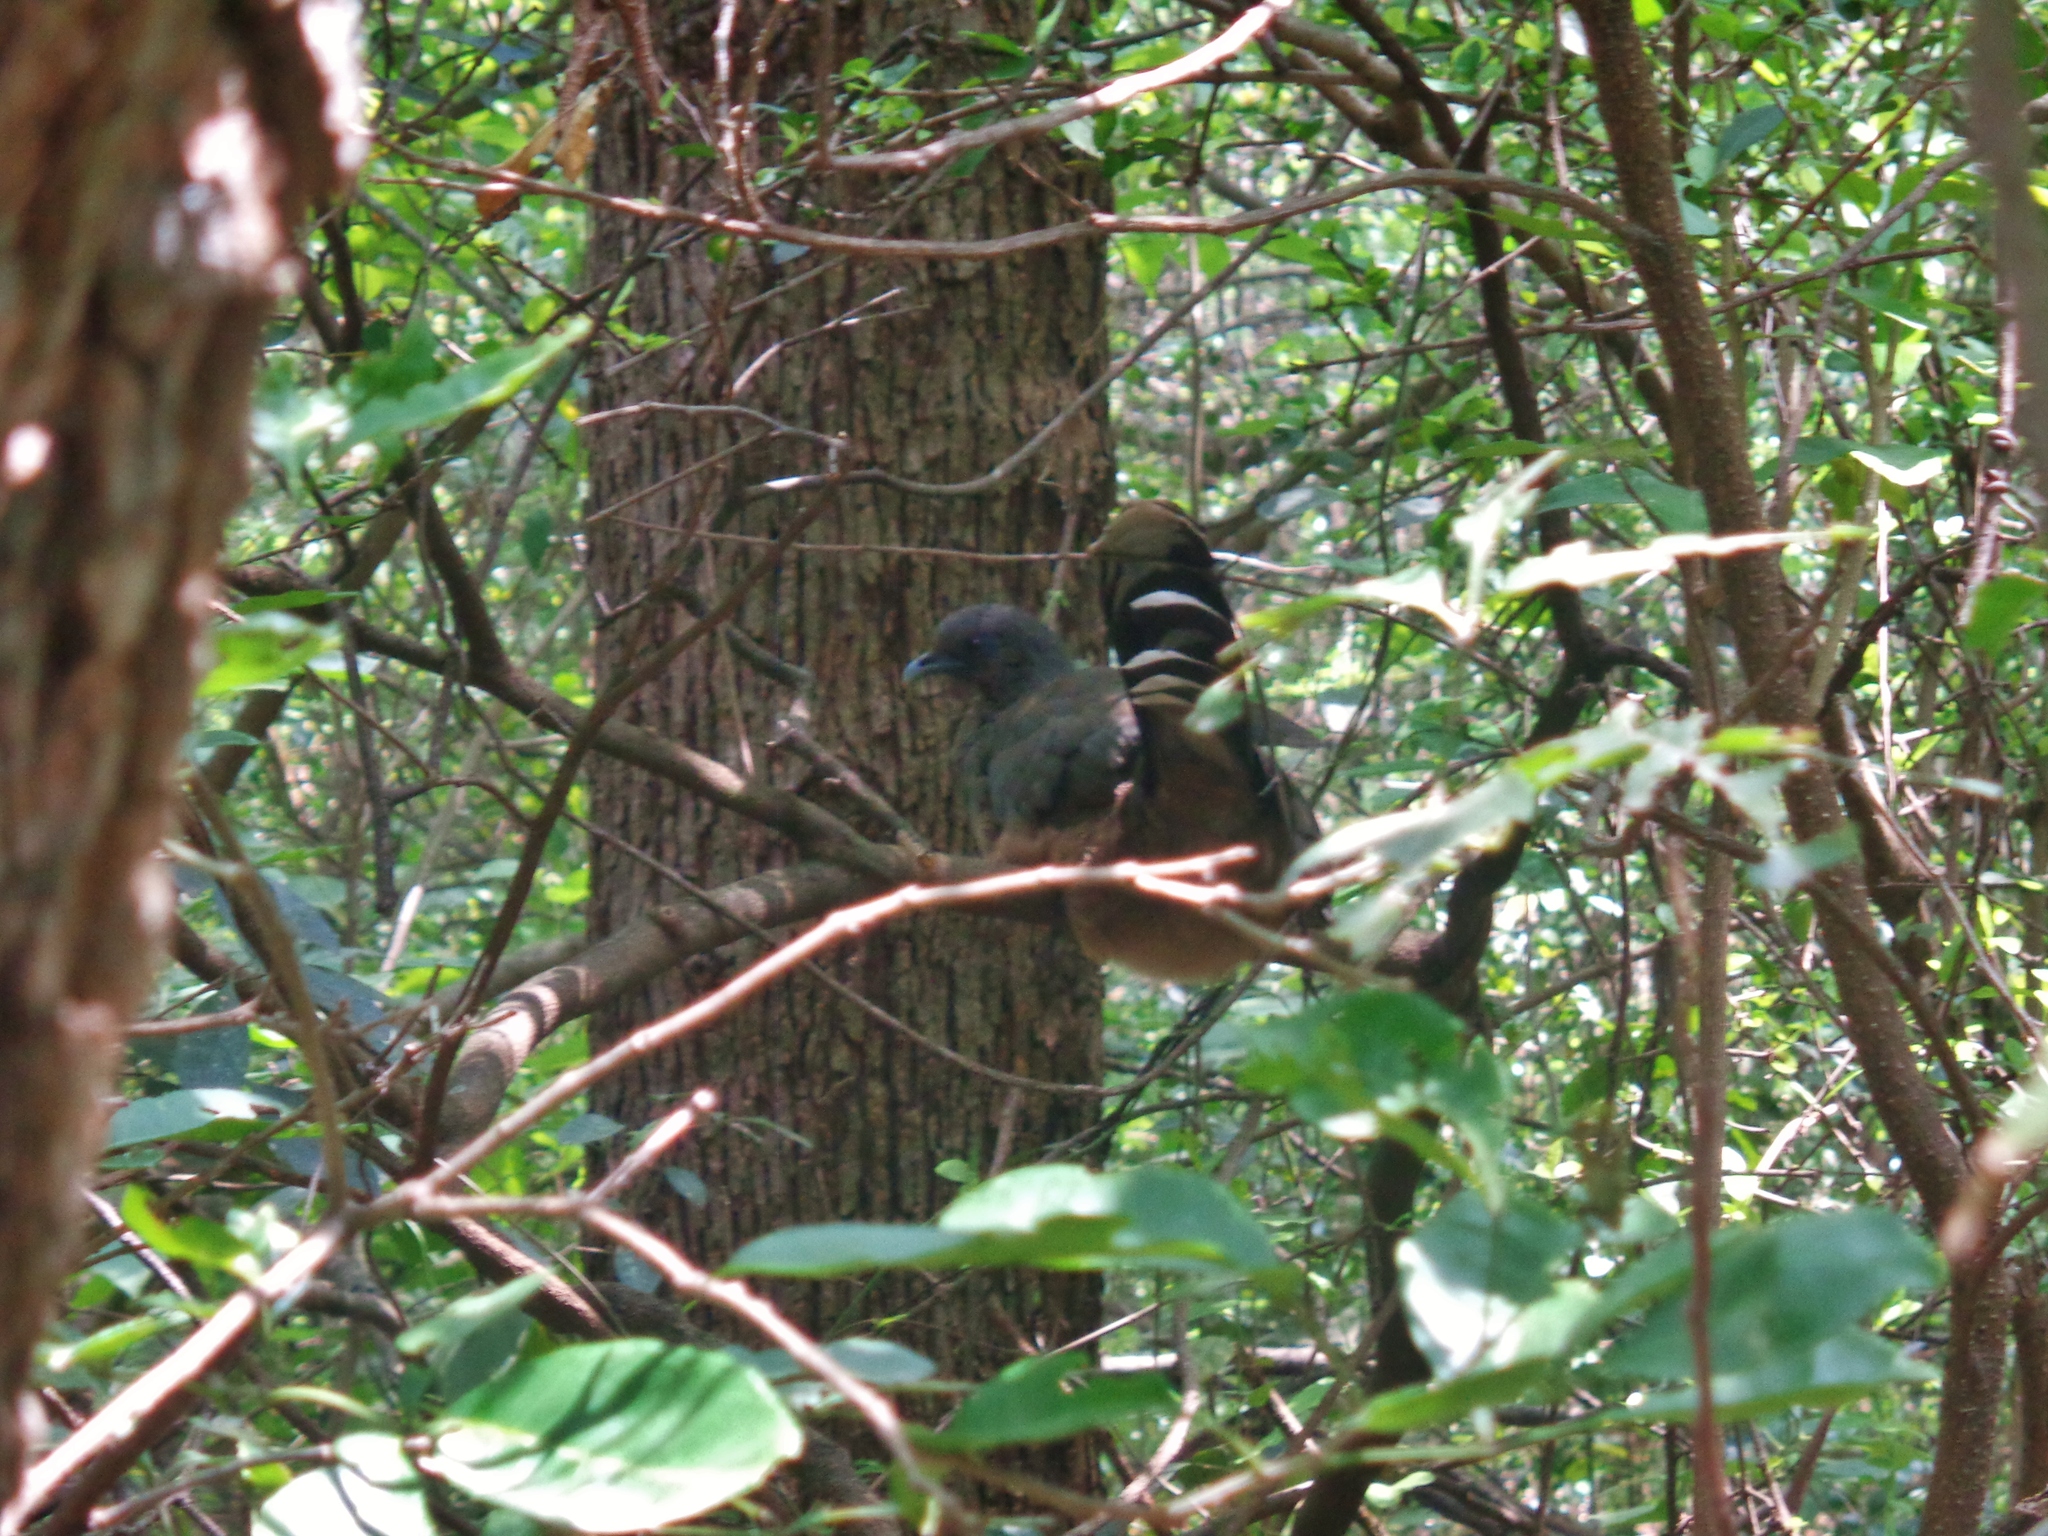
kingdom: Animalia
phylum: Chordata
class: Aves
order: Galliformes
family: Cracidae
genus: Ortalis
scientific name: Ortalis vetula
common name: Plain chachalaca
